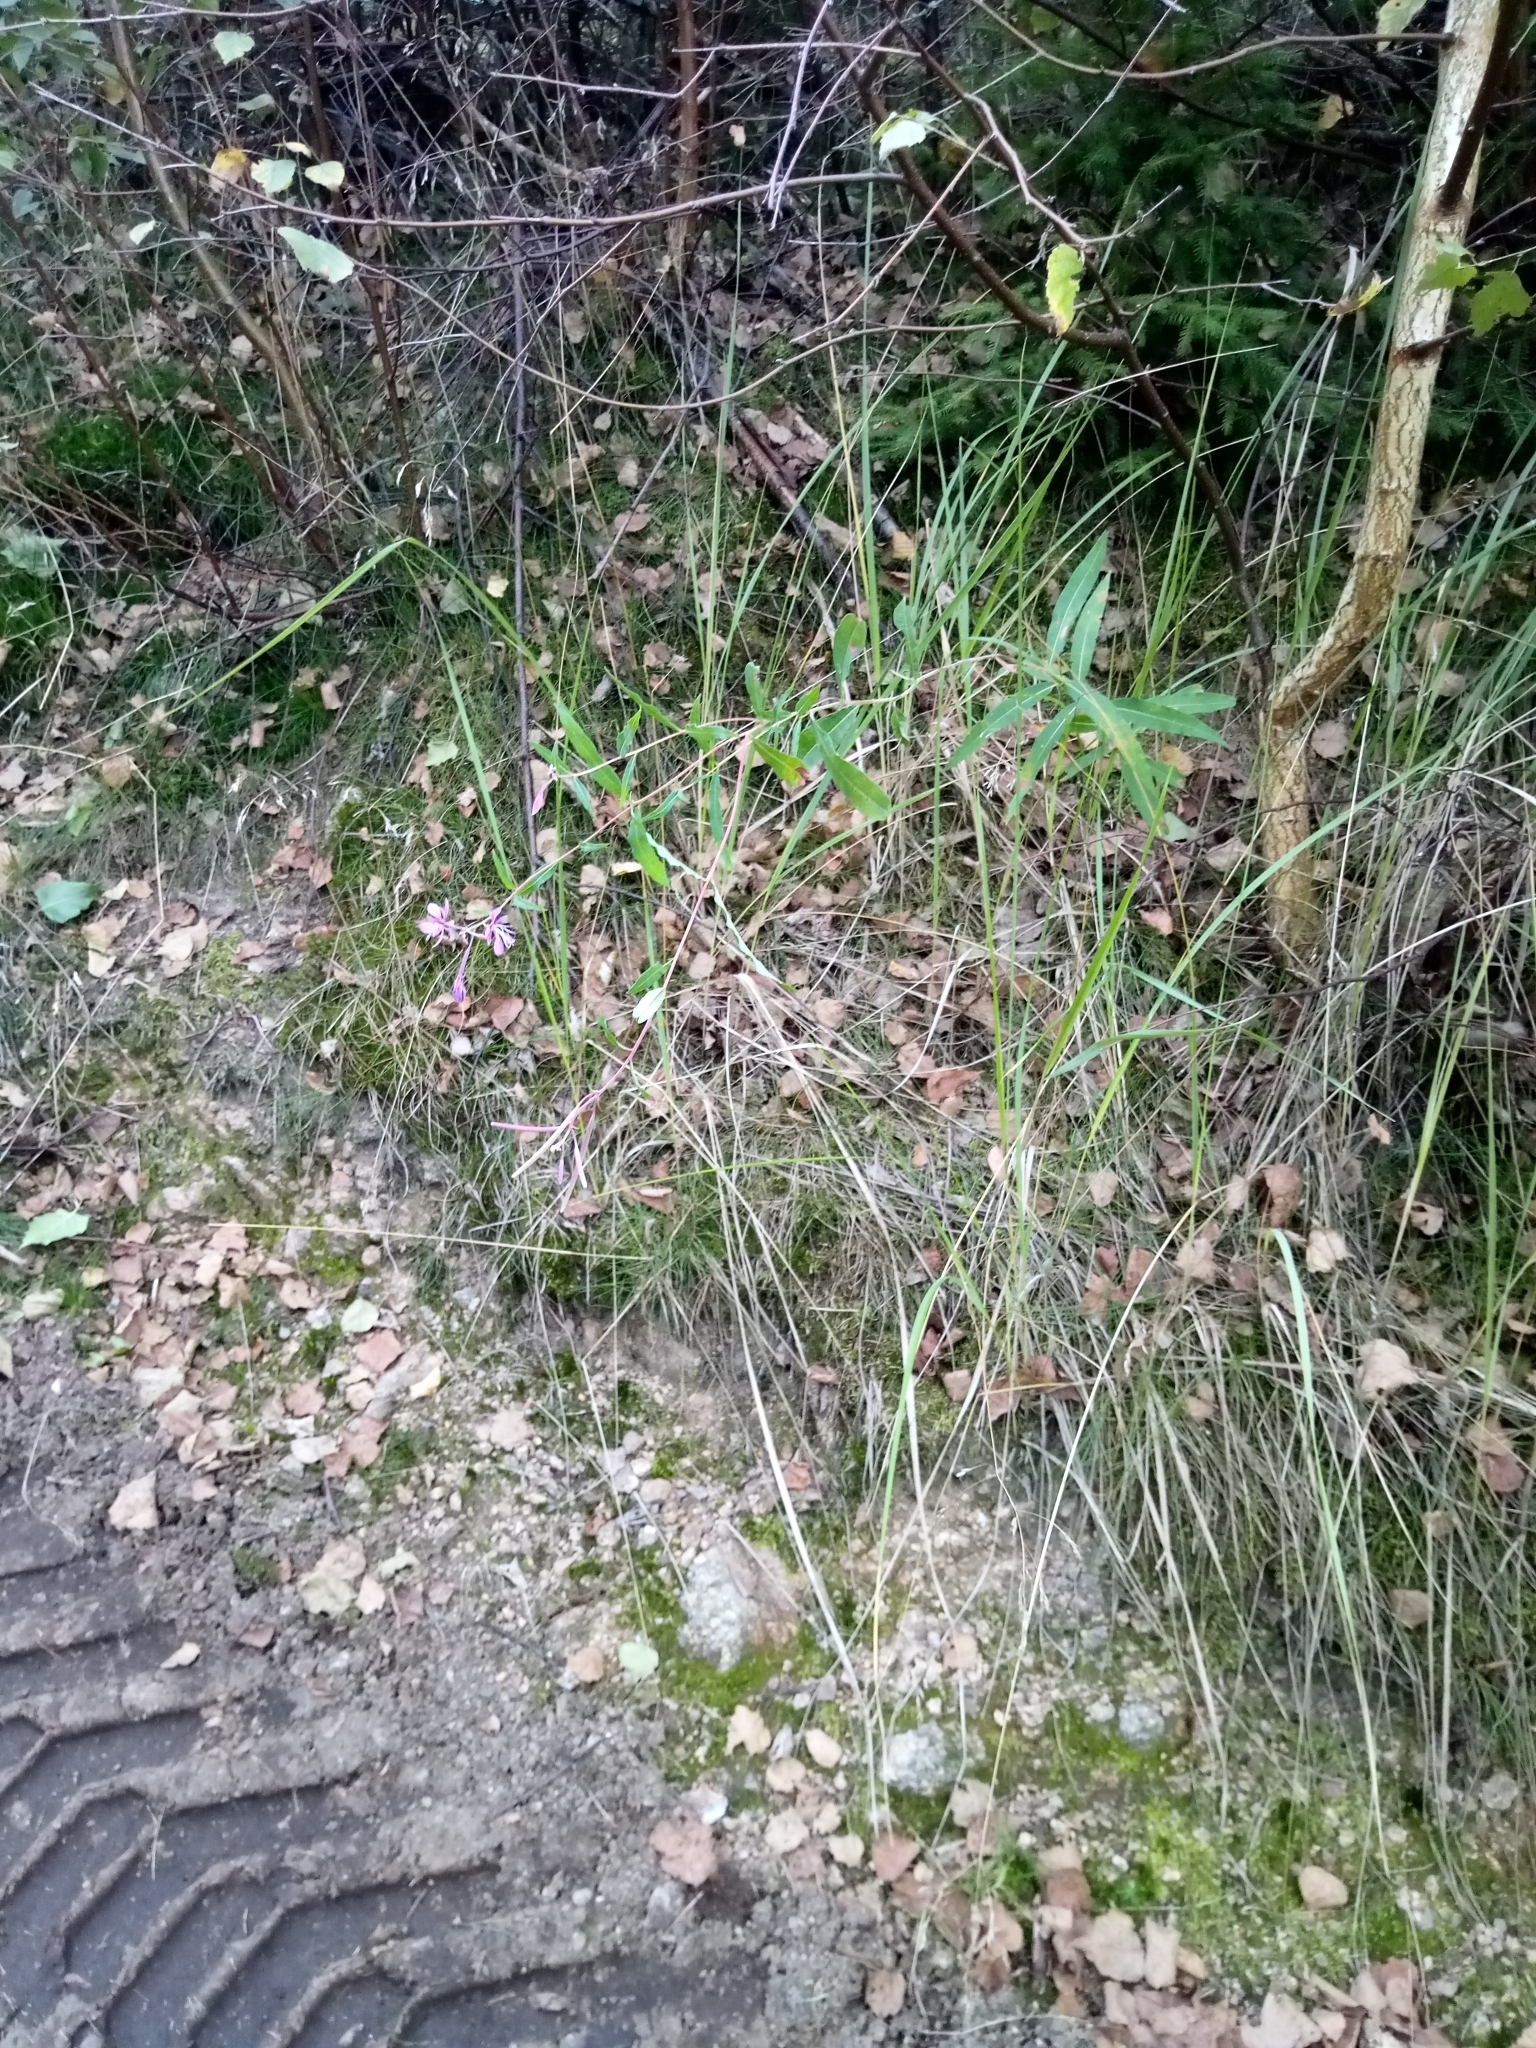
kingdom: Plantae
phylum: Tracheophyta
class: Magnoliopsida
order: Myrtales
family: Onagraceae
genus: Chamaenerion
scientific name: Chamaenerion angustifolium
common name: Fireweed
